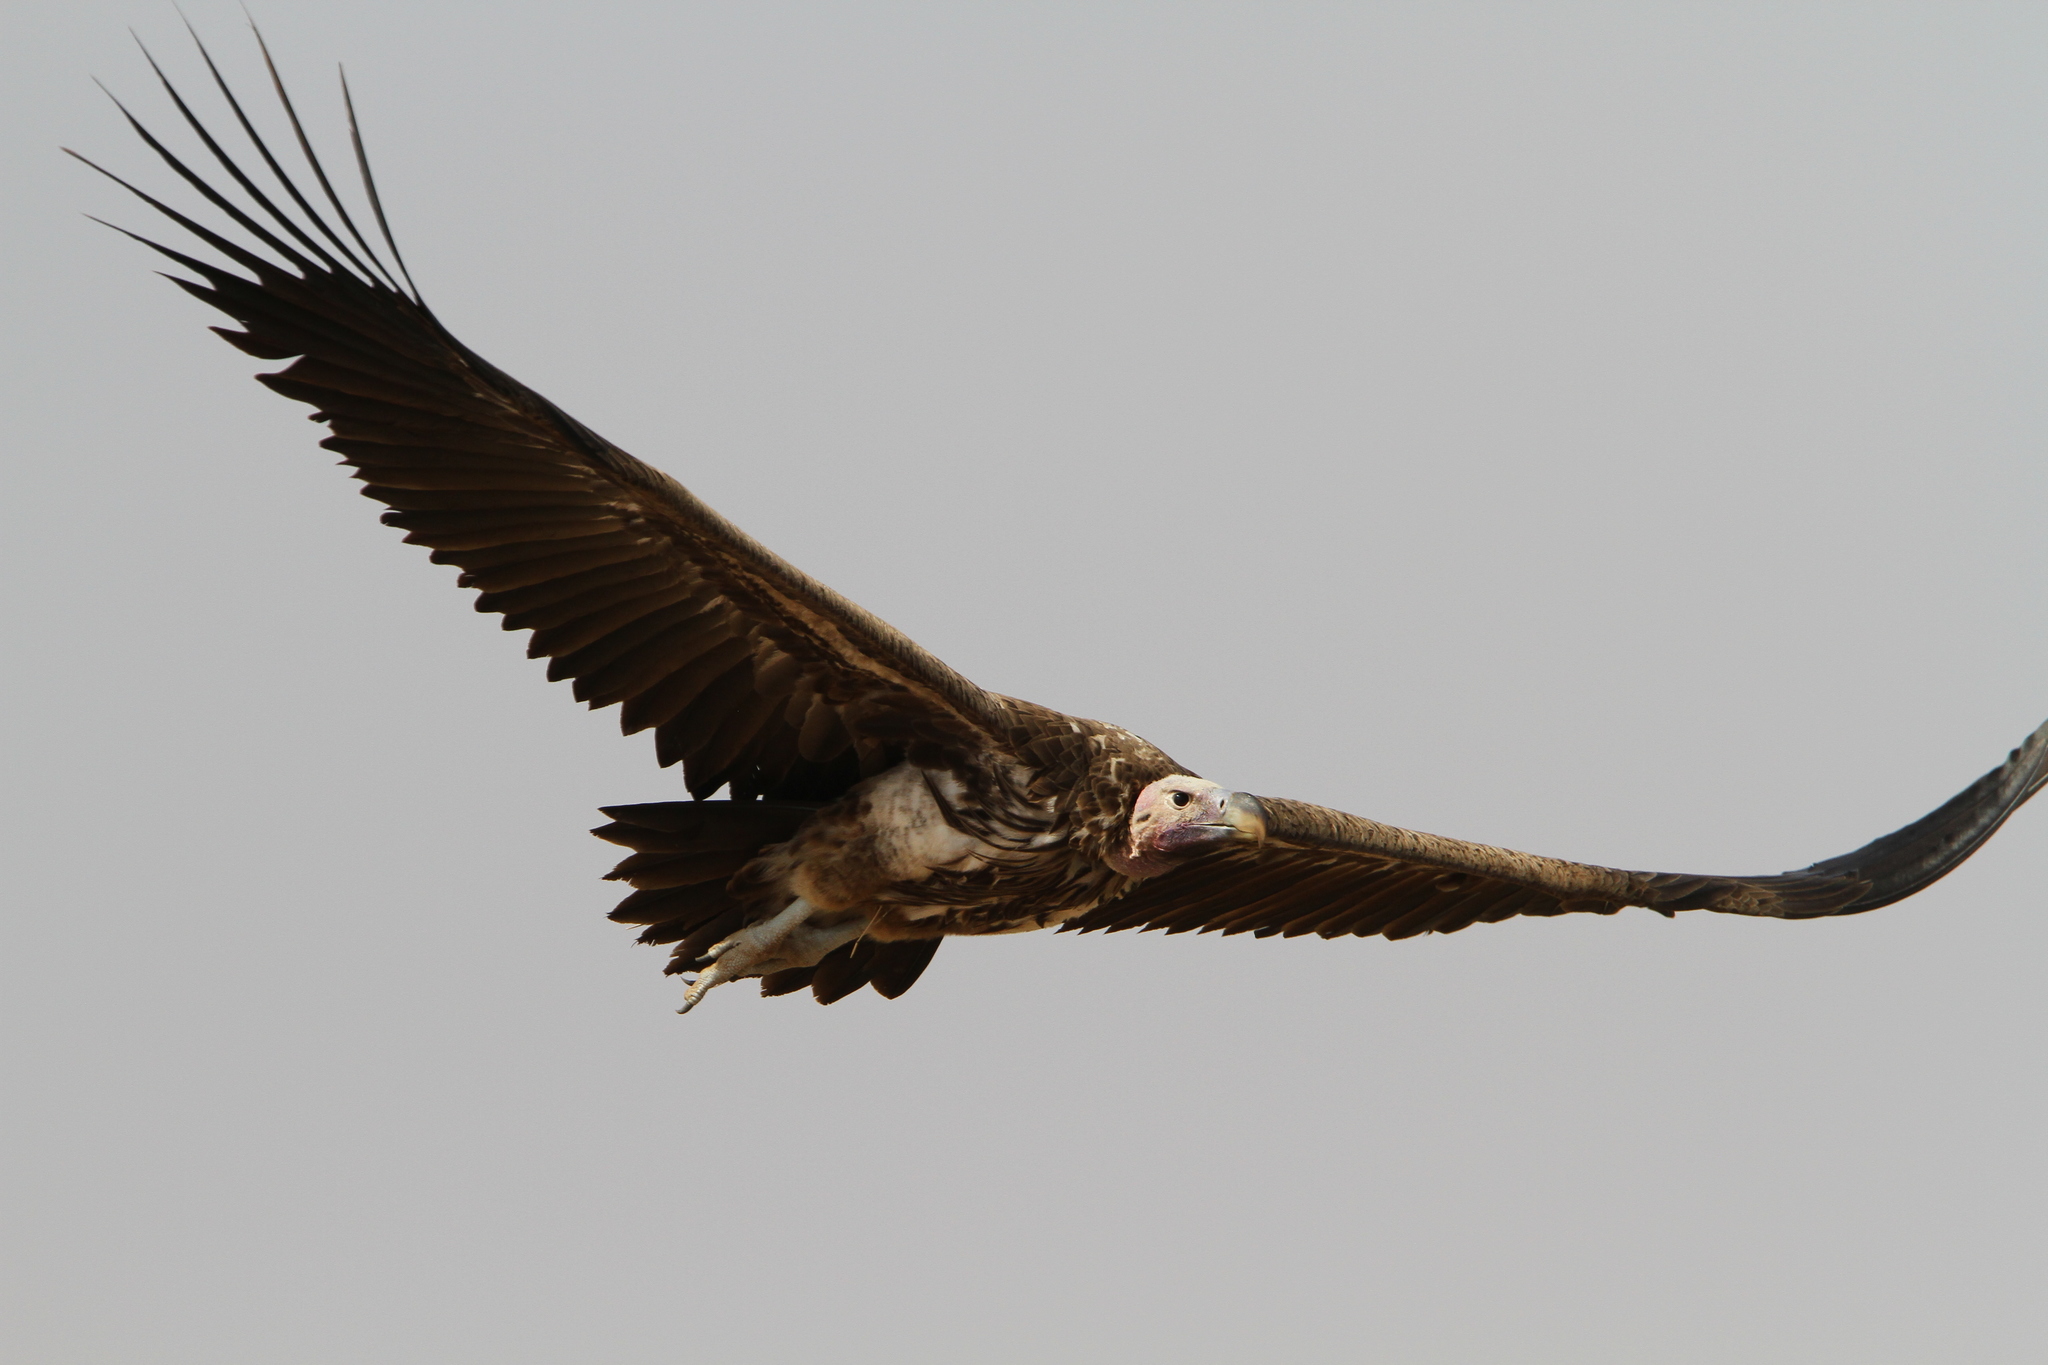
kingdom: Animalia
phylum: Chordata
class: Aves
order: Accipitriformes
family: Accipitridae
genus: Torgos
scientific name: Torgos tracheliotos
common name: Lappet-faced vulture
